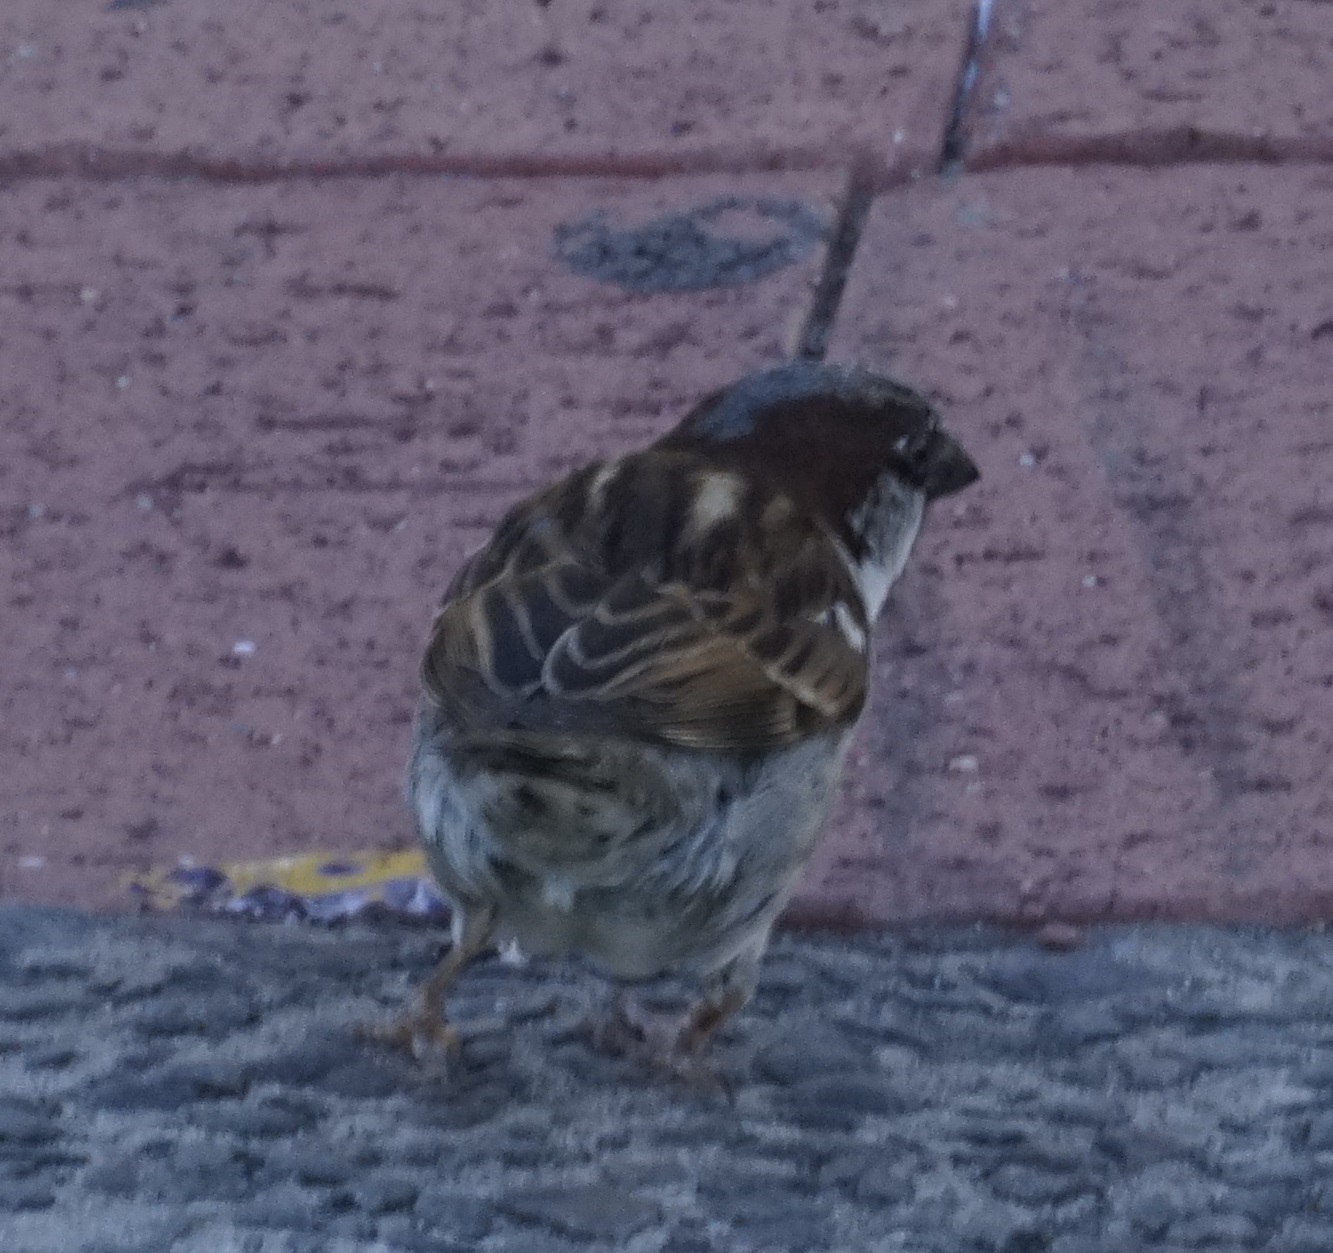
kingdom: Animalia
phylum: Chordata
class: Aves
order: Passeriformes
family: Passeridae
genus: Passer
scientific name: Passer domesticus
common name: House sparrow
